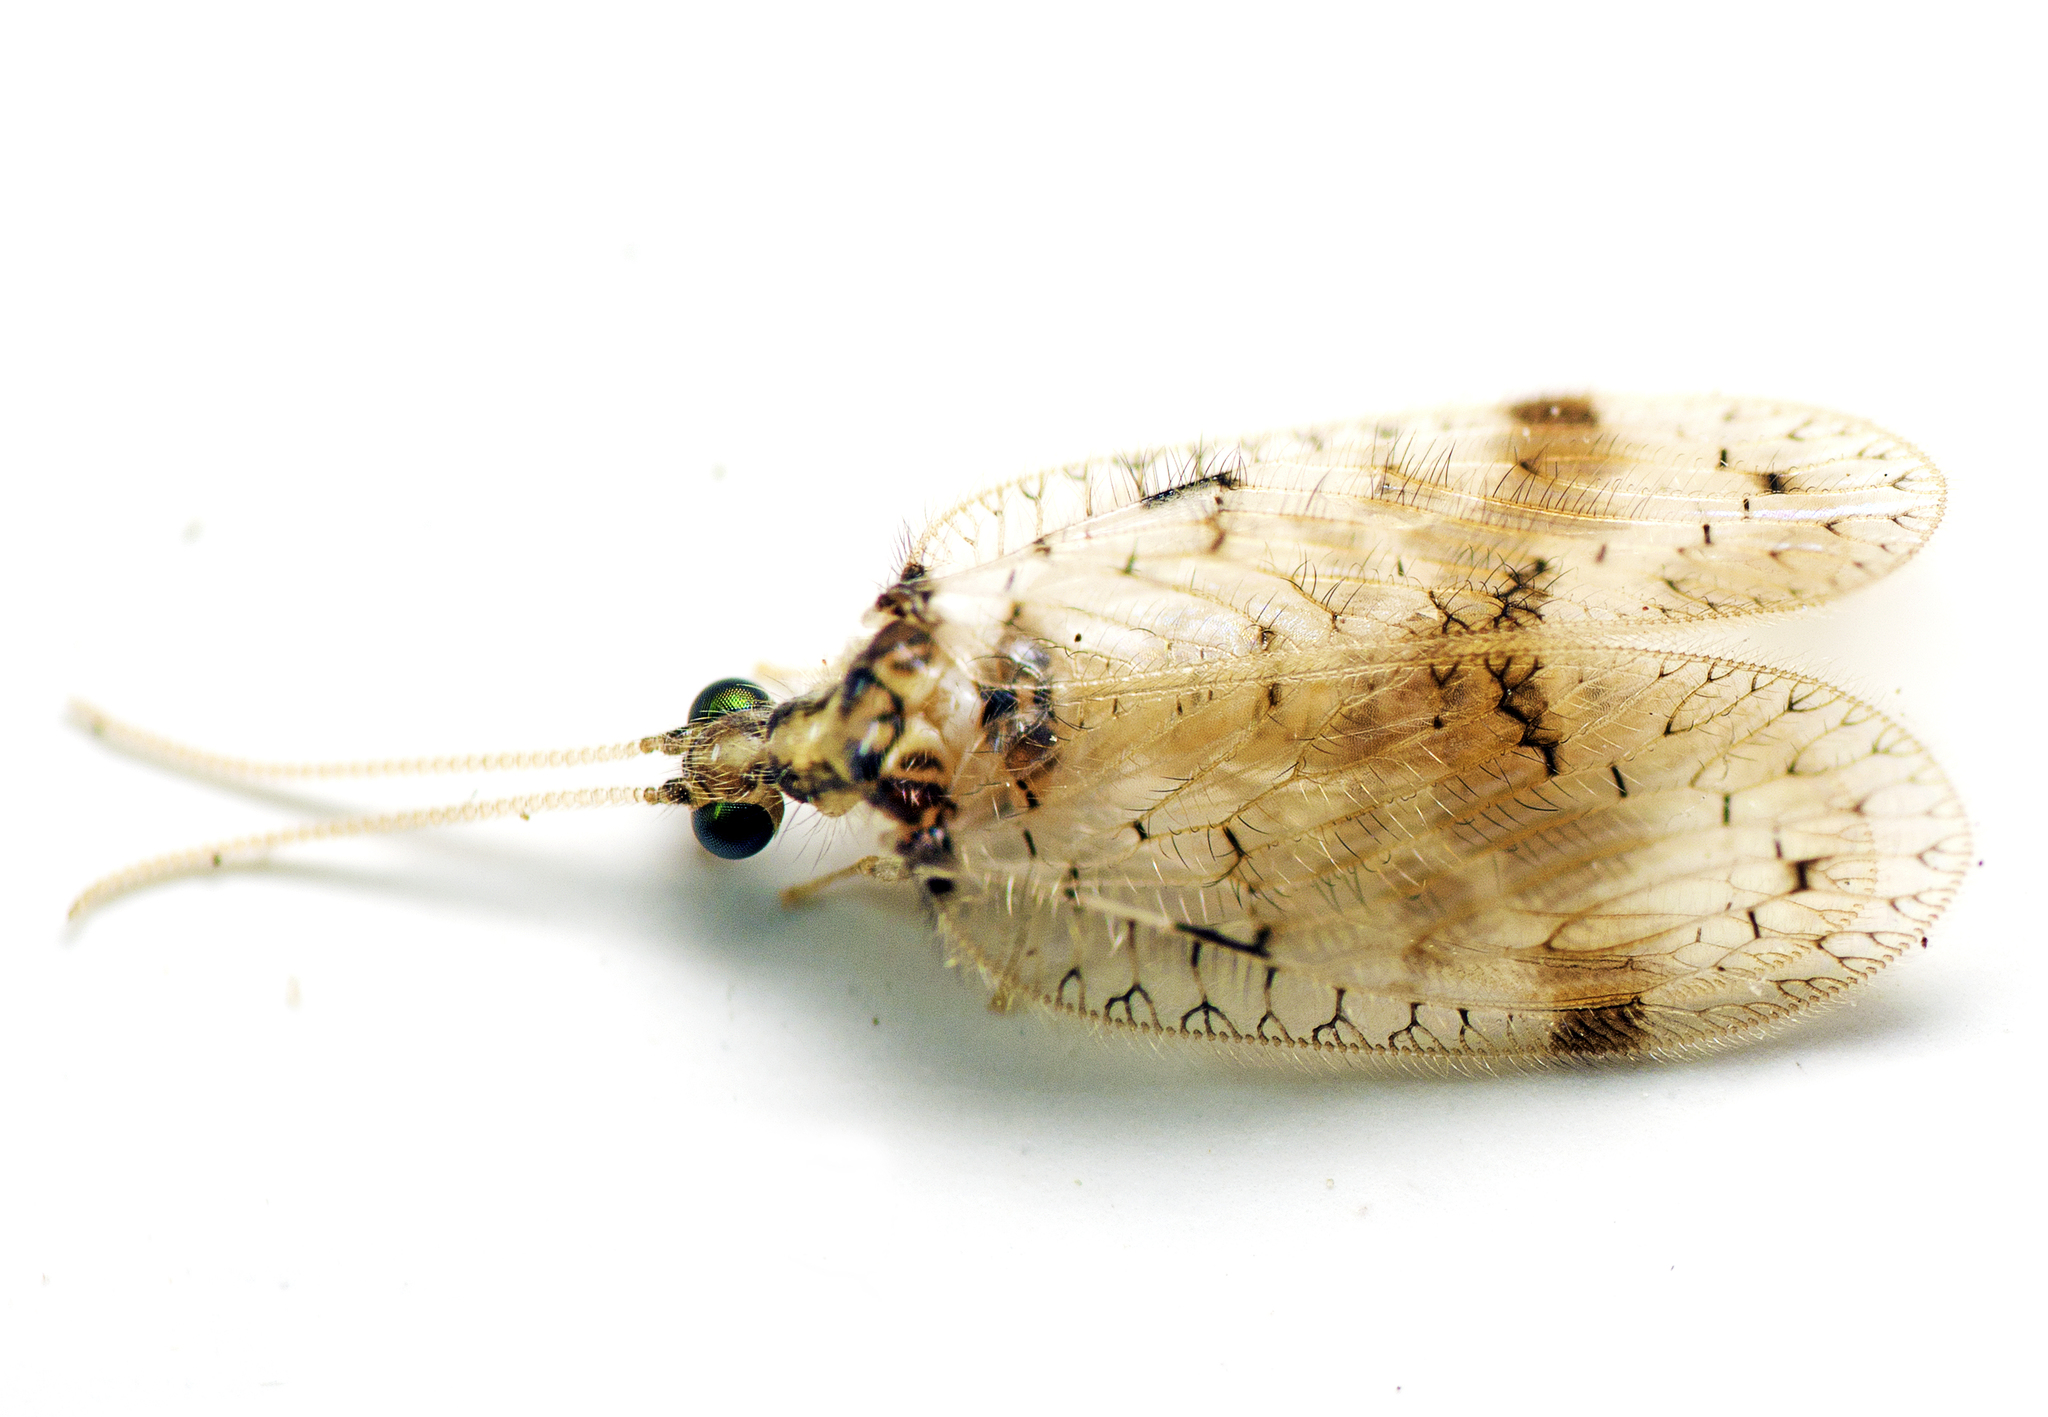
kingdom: Animalia
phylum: Arthropoda
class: Insecta
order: Neuroptera
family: Hemerobiidae
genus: Carobius
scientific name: Carobius pulchellus
